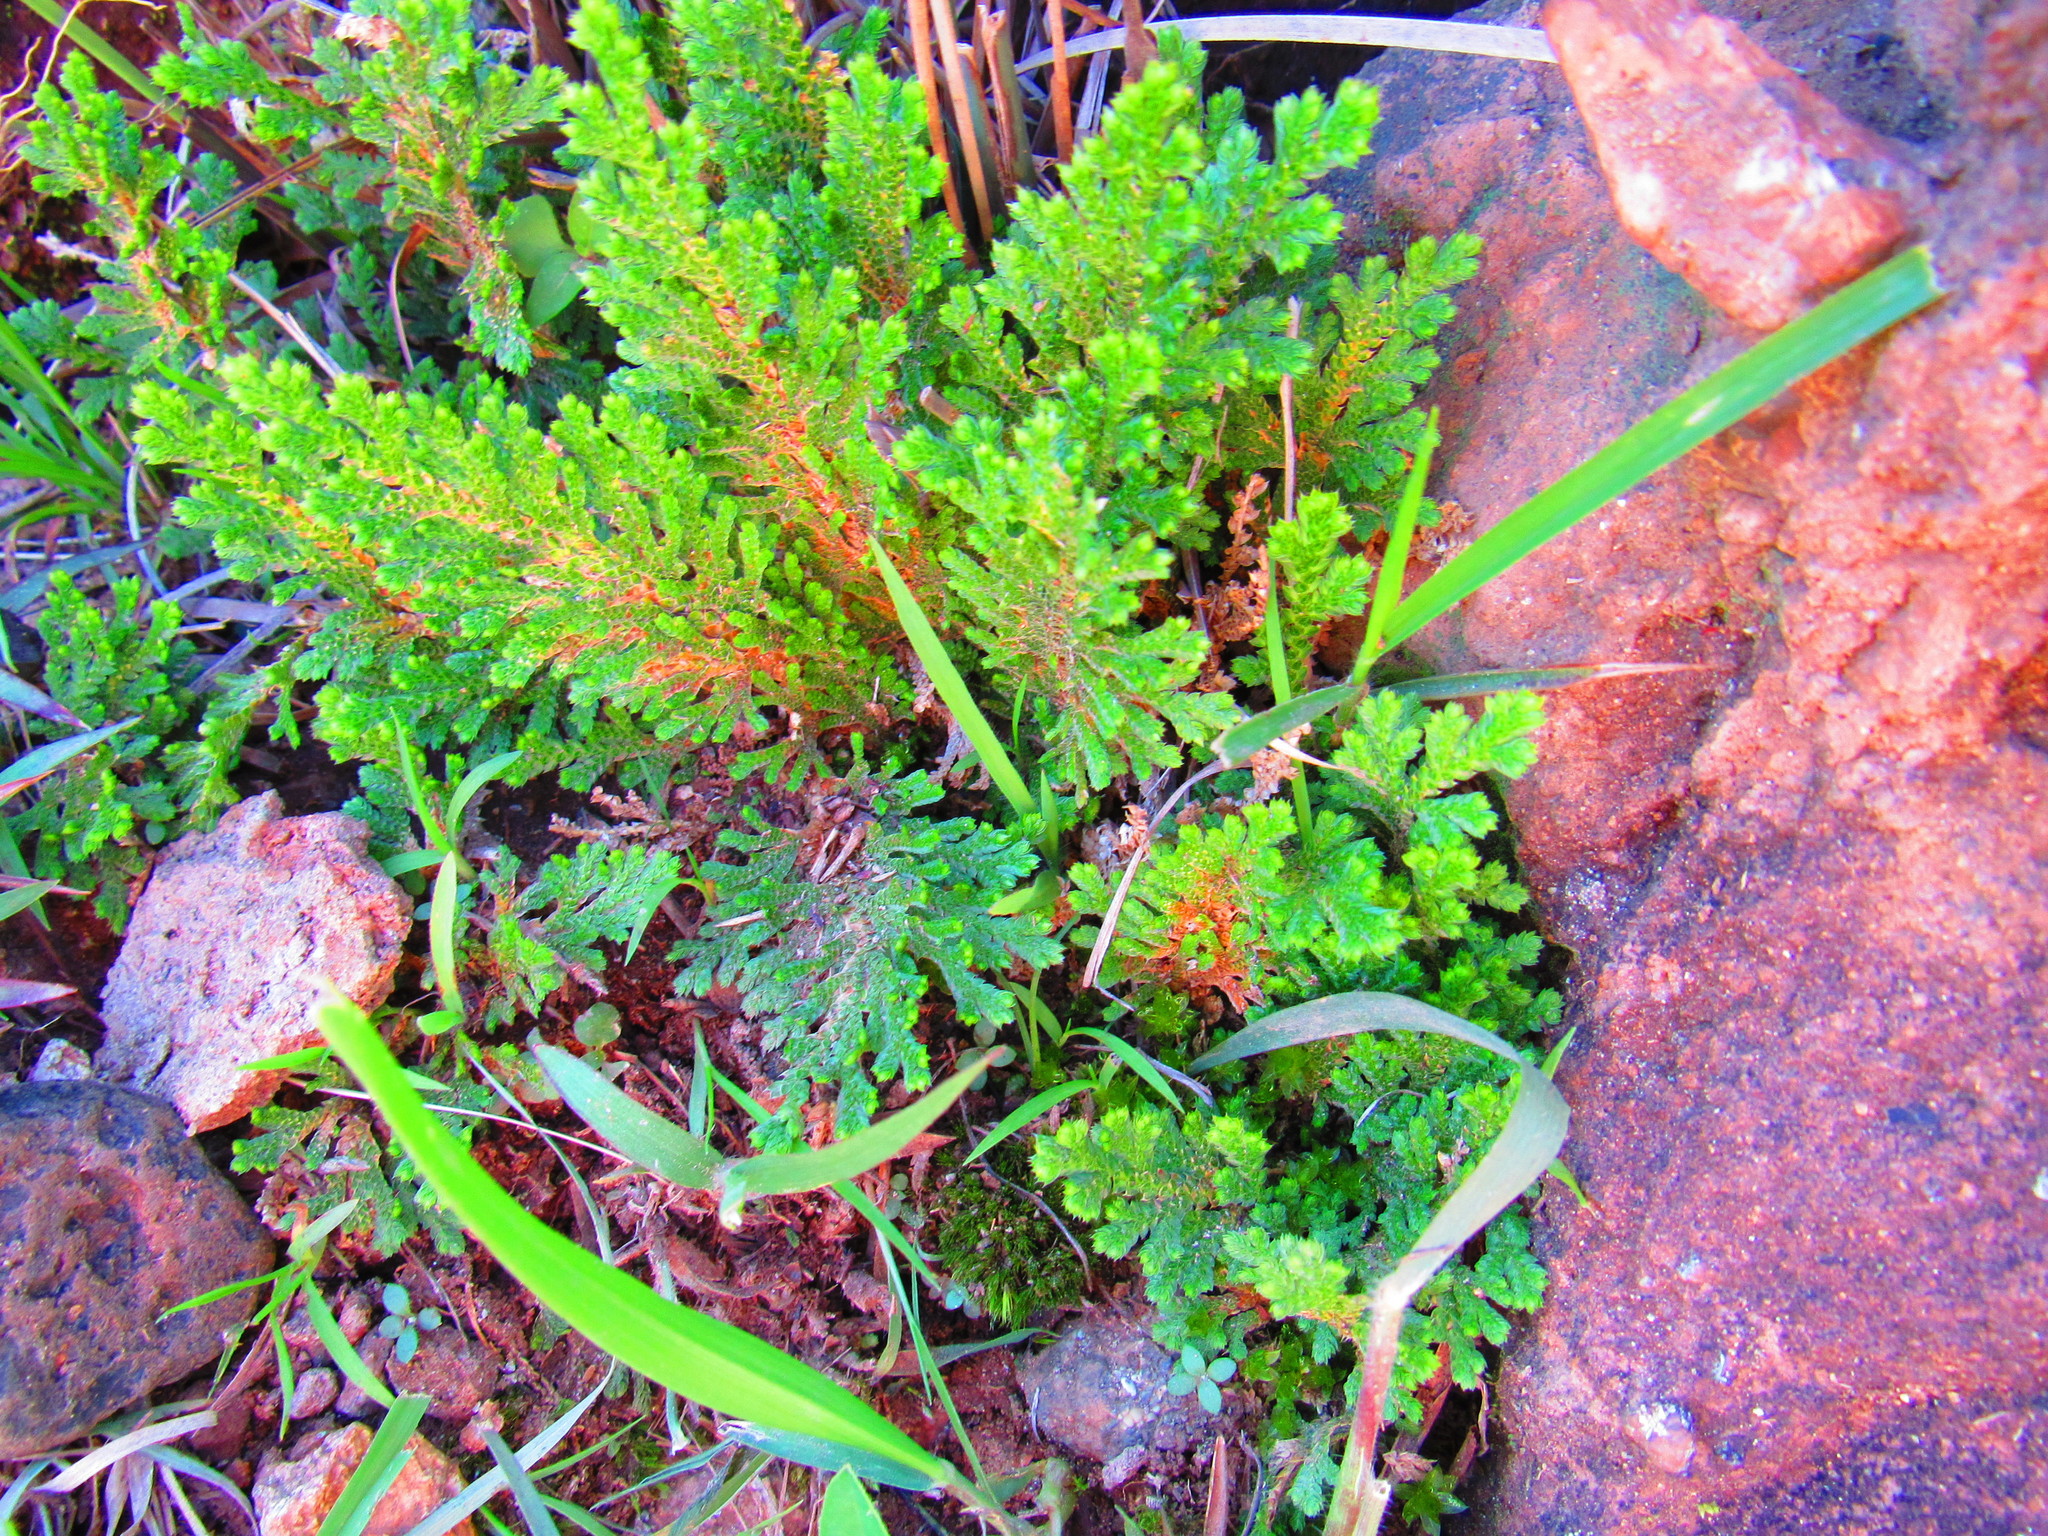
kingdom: Plantae
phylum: Tracheophyta
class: Lycopodiopsida
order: Selaginellales
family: Selaginellaceae
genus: Selaginella
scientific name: Selaginella lepidophylla
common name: Rose-of-jericho
